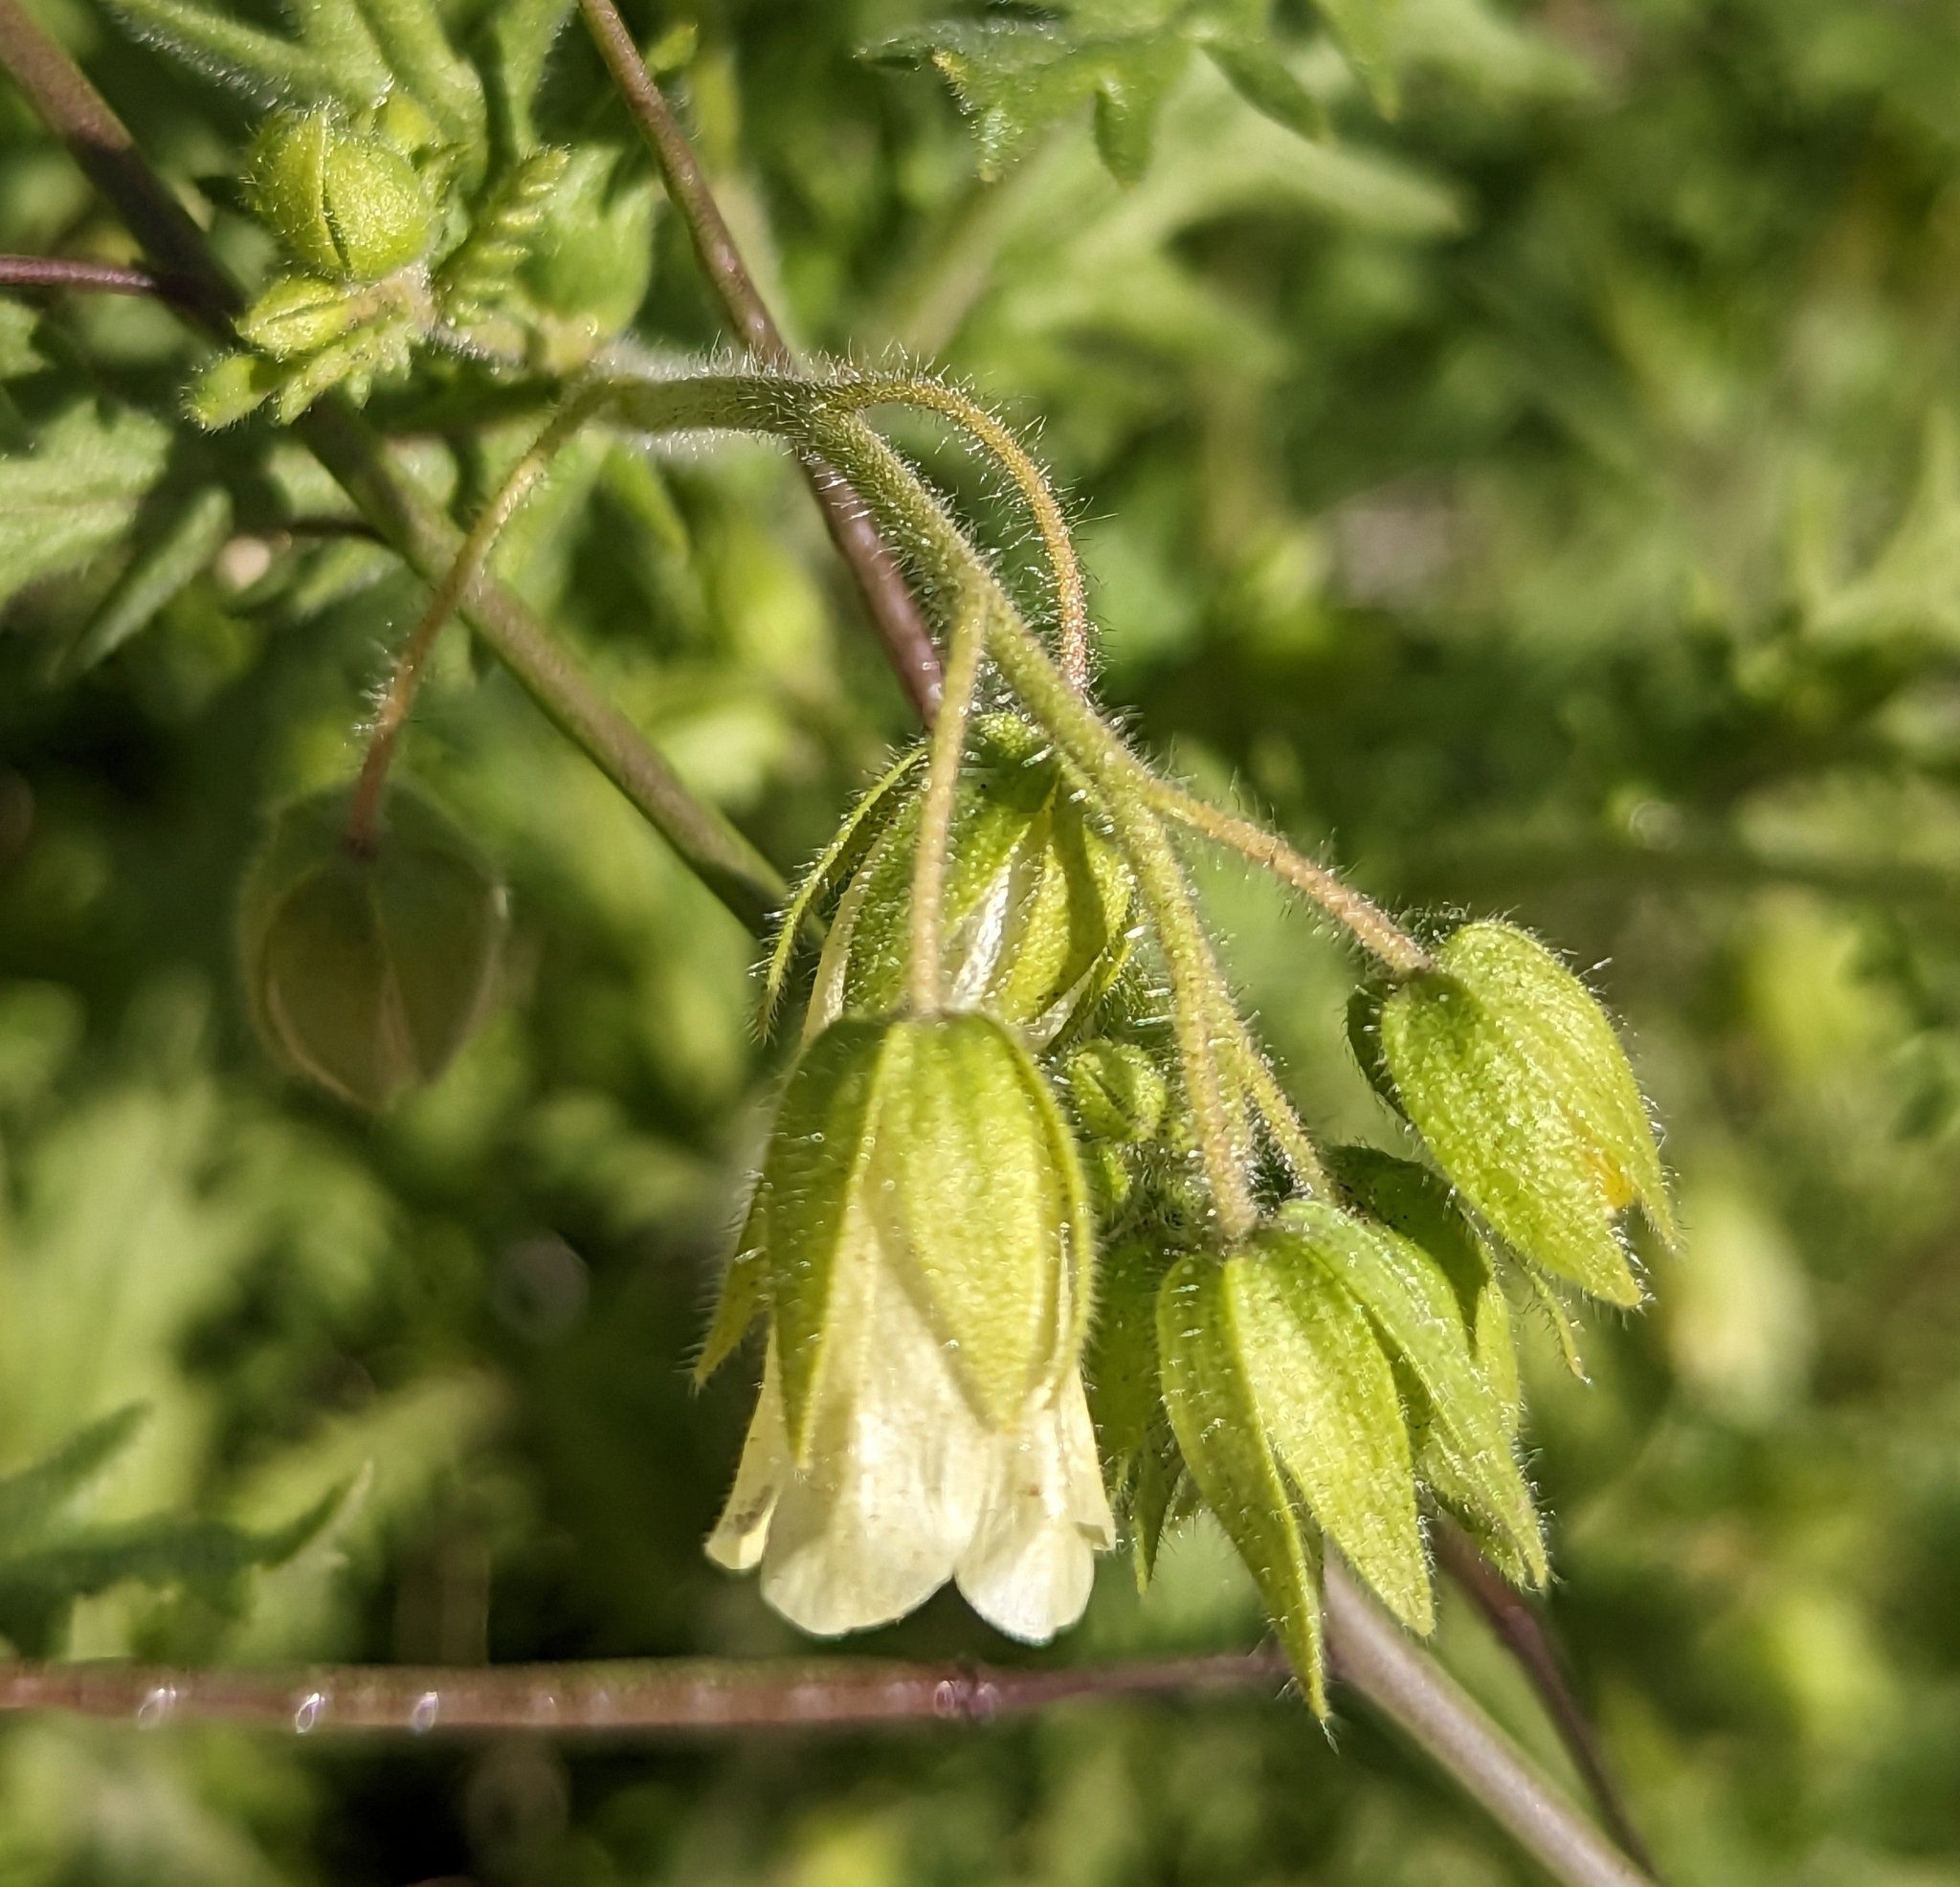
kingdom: Plantae
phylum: Tracheophyta
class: Magnoliopsida
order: Boraginales
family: Hydrophyllaceae
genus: Emmenanthe
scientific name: Emmenanthe penduliflora
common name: Whispering-bells
